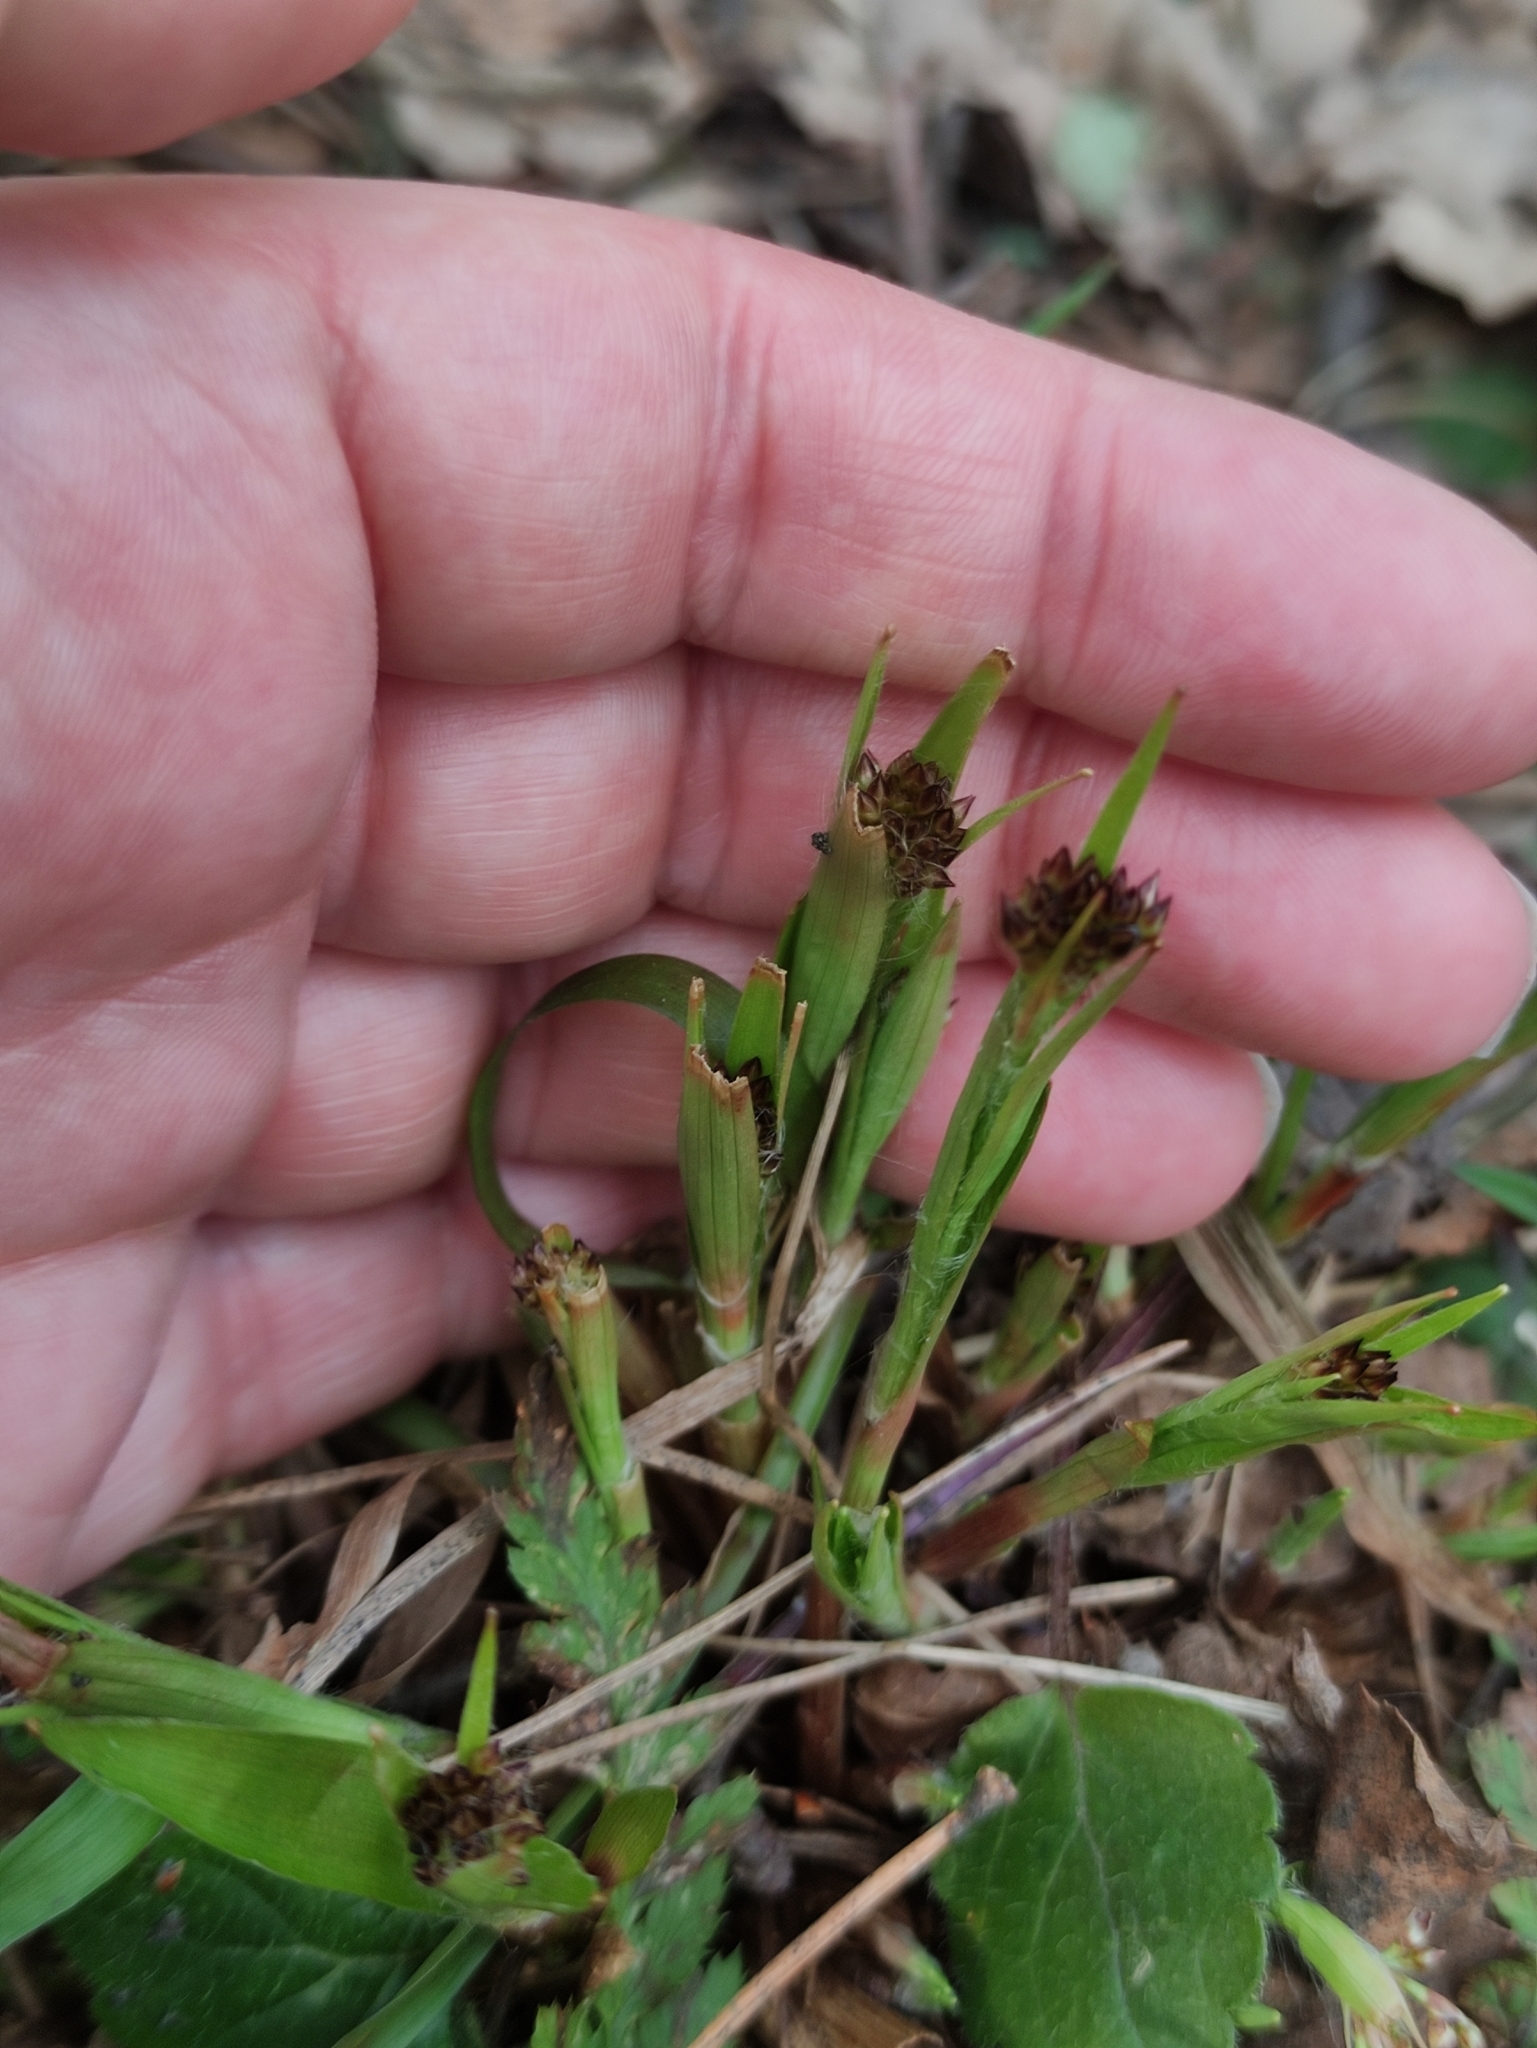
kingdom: Plantae
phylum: Tracheophyta
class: Liliopsida
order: Poales
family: Juncaceae
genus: Luzula
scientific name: Luzula pilosa
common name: Hairy wood-rush
